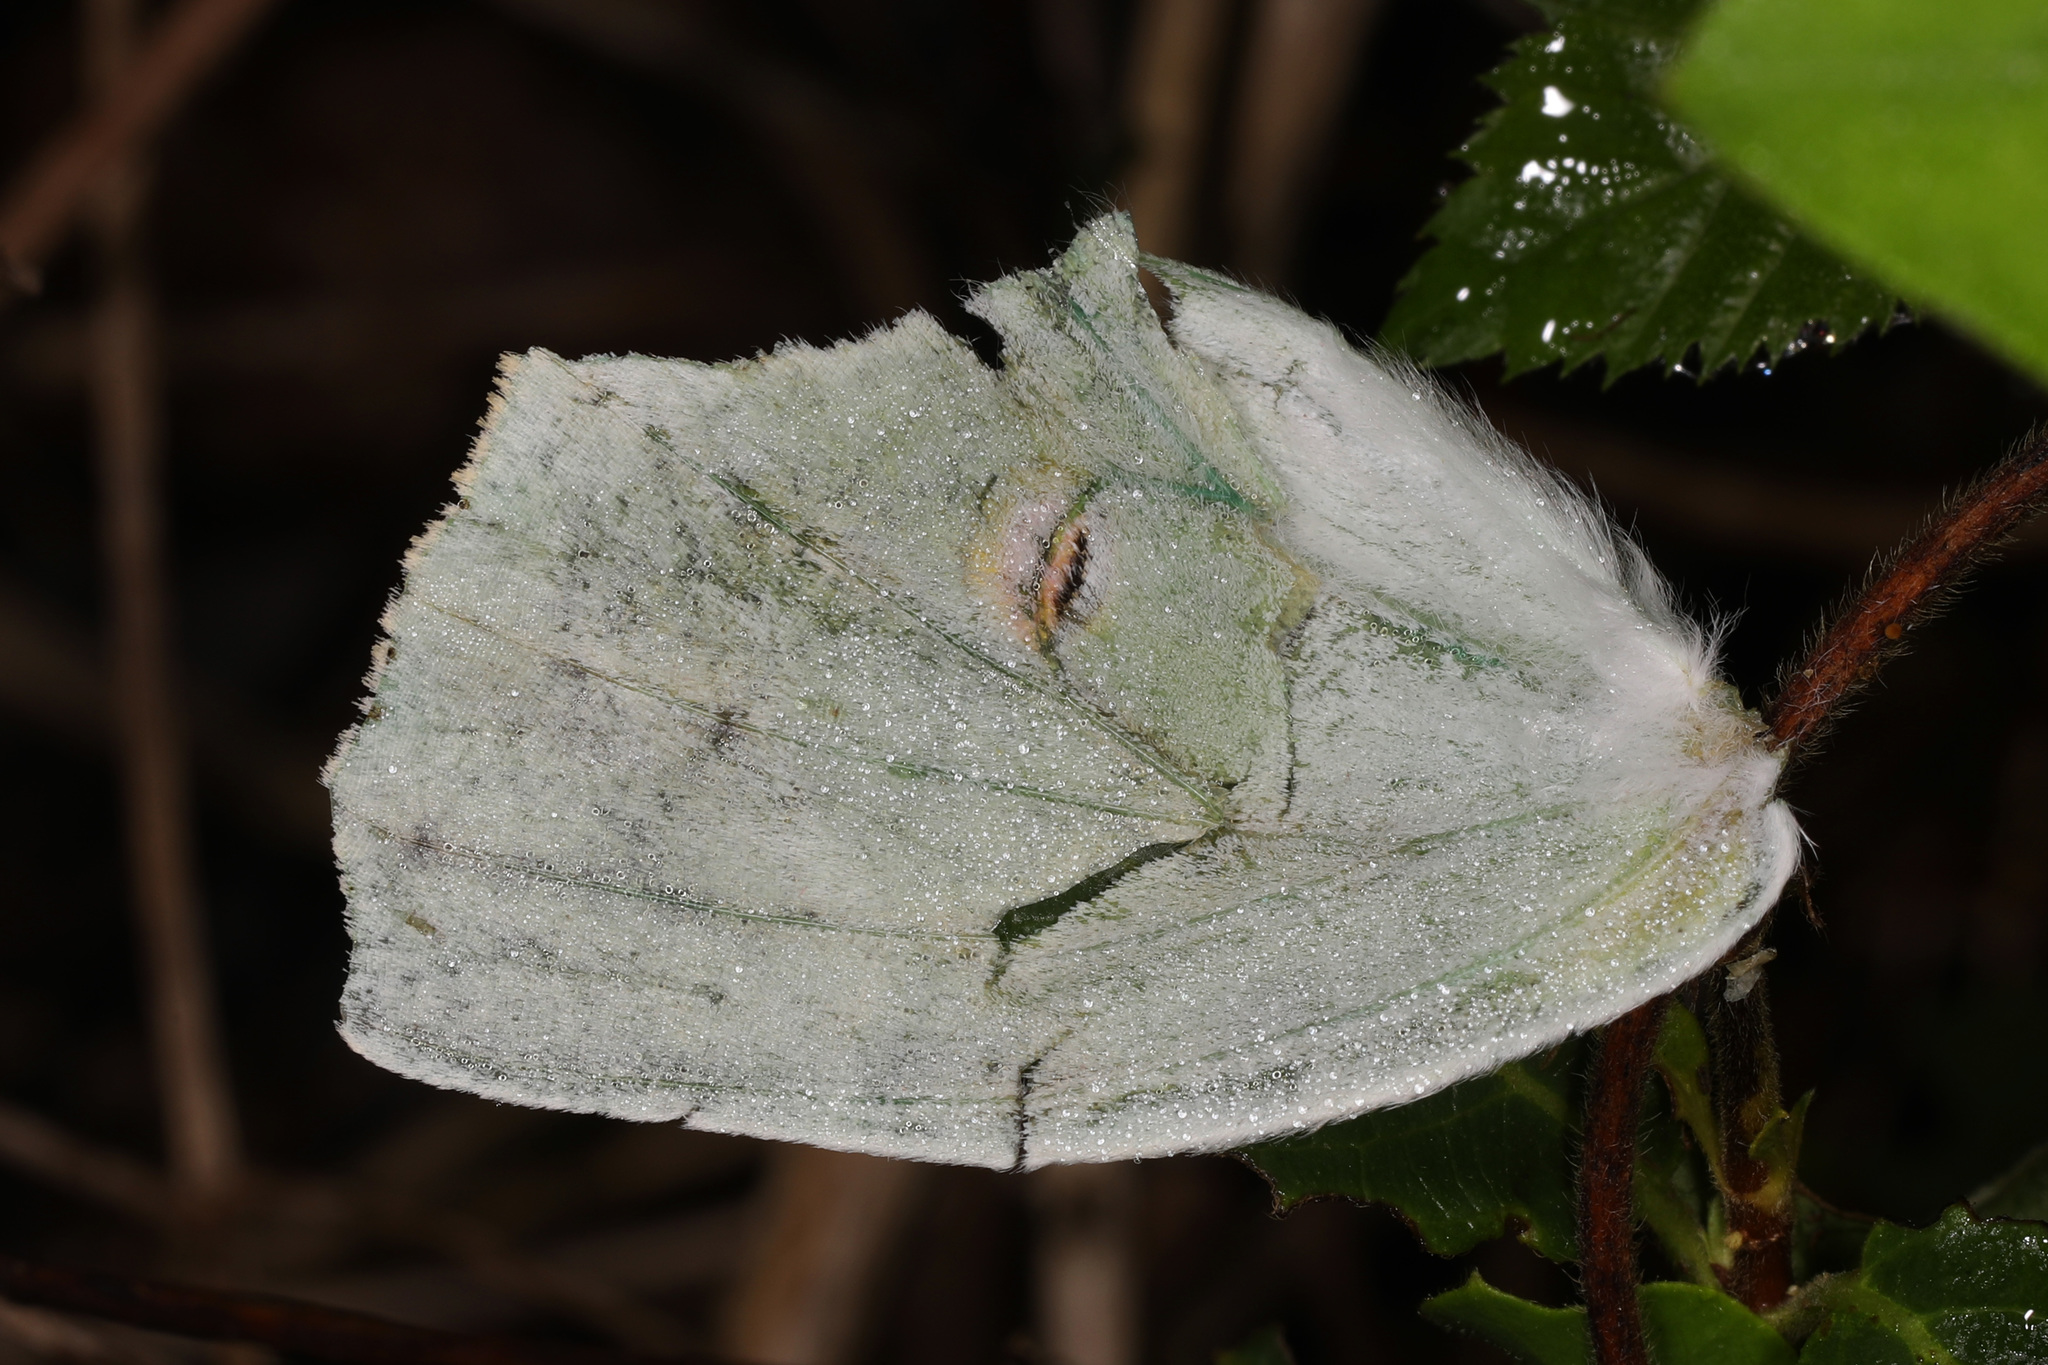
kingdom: Animalia
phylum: Arthropoda
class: Insecta
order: Lepidoptera
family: Saturniidae
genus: Actias
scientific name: Actias luna
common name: Luna moth
